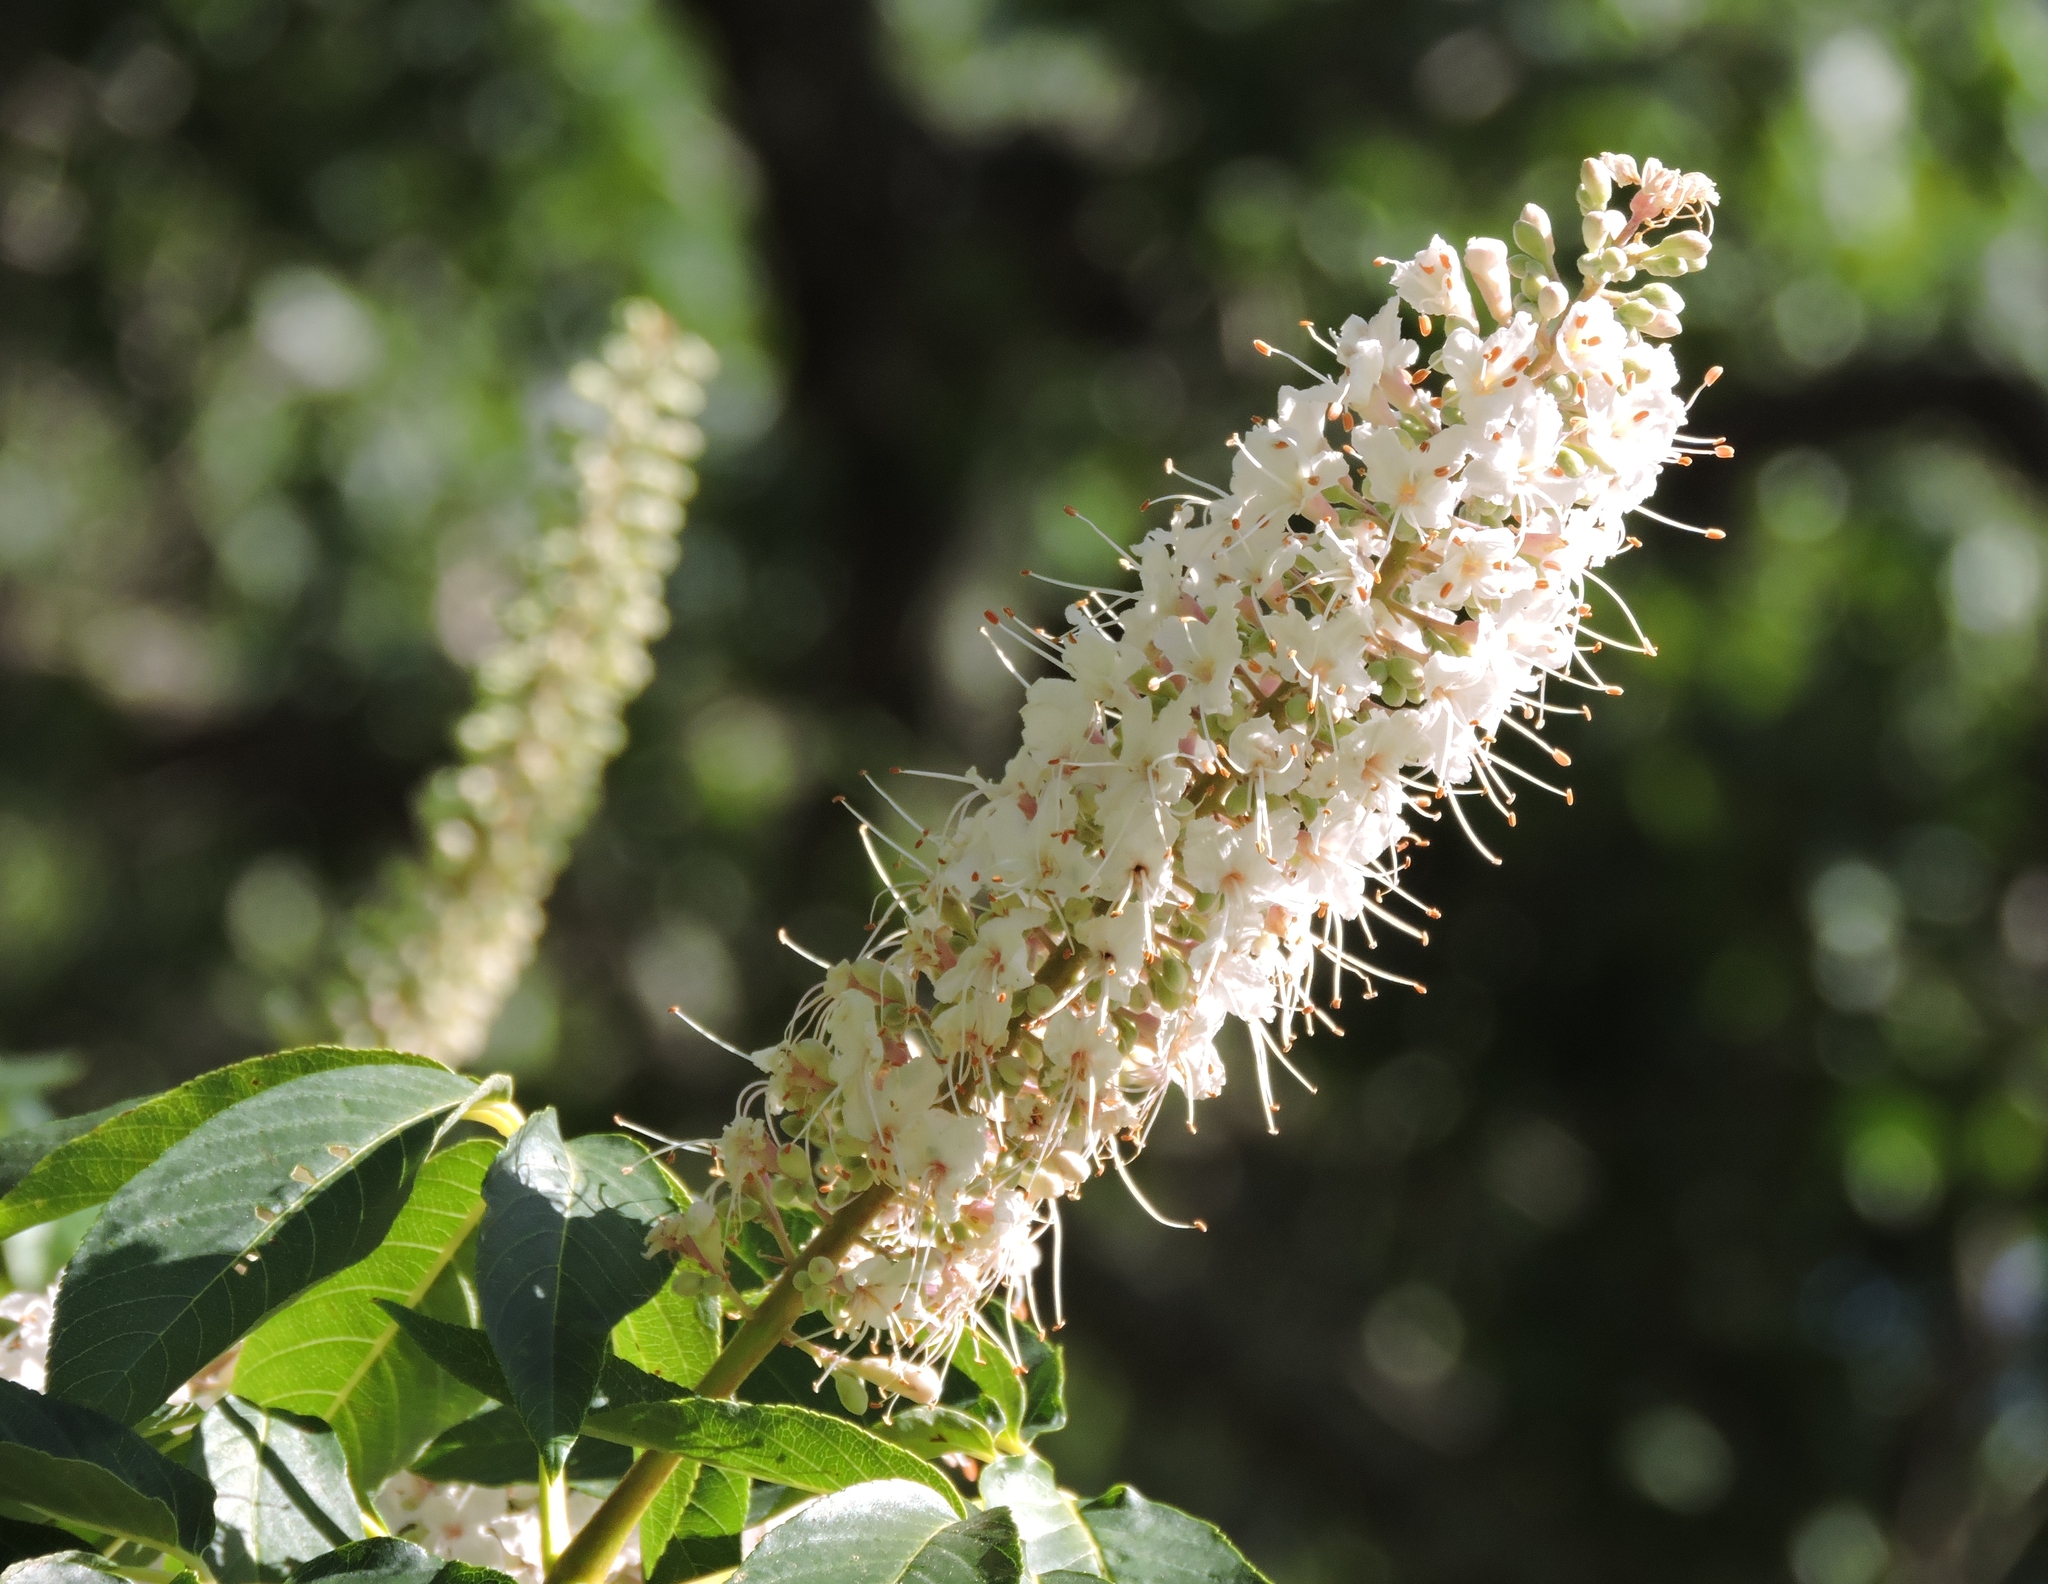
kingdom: Plantae
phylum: Tracheophyta
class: Magnoliopsida
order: Sapindales
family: Sapindaceae
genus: Aesculus
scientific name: Aesculus californica
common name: California buckeye
